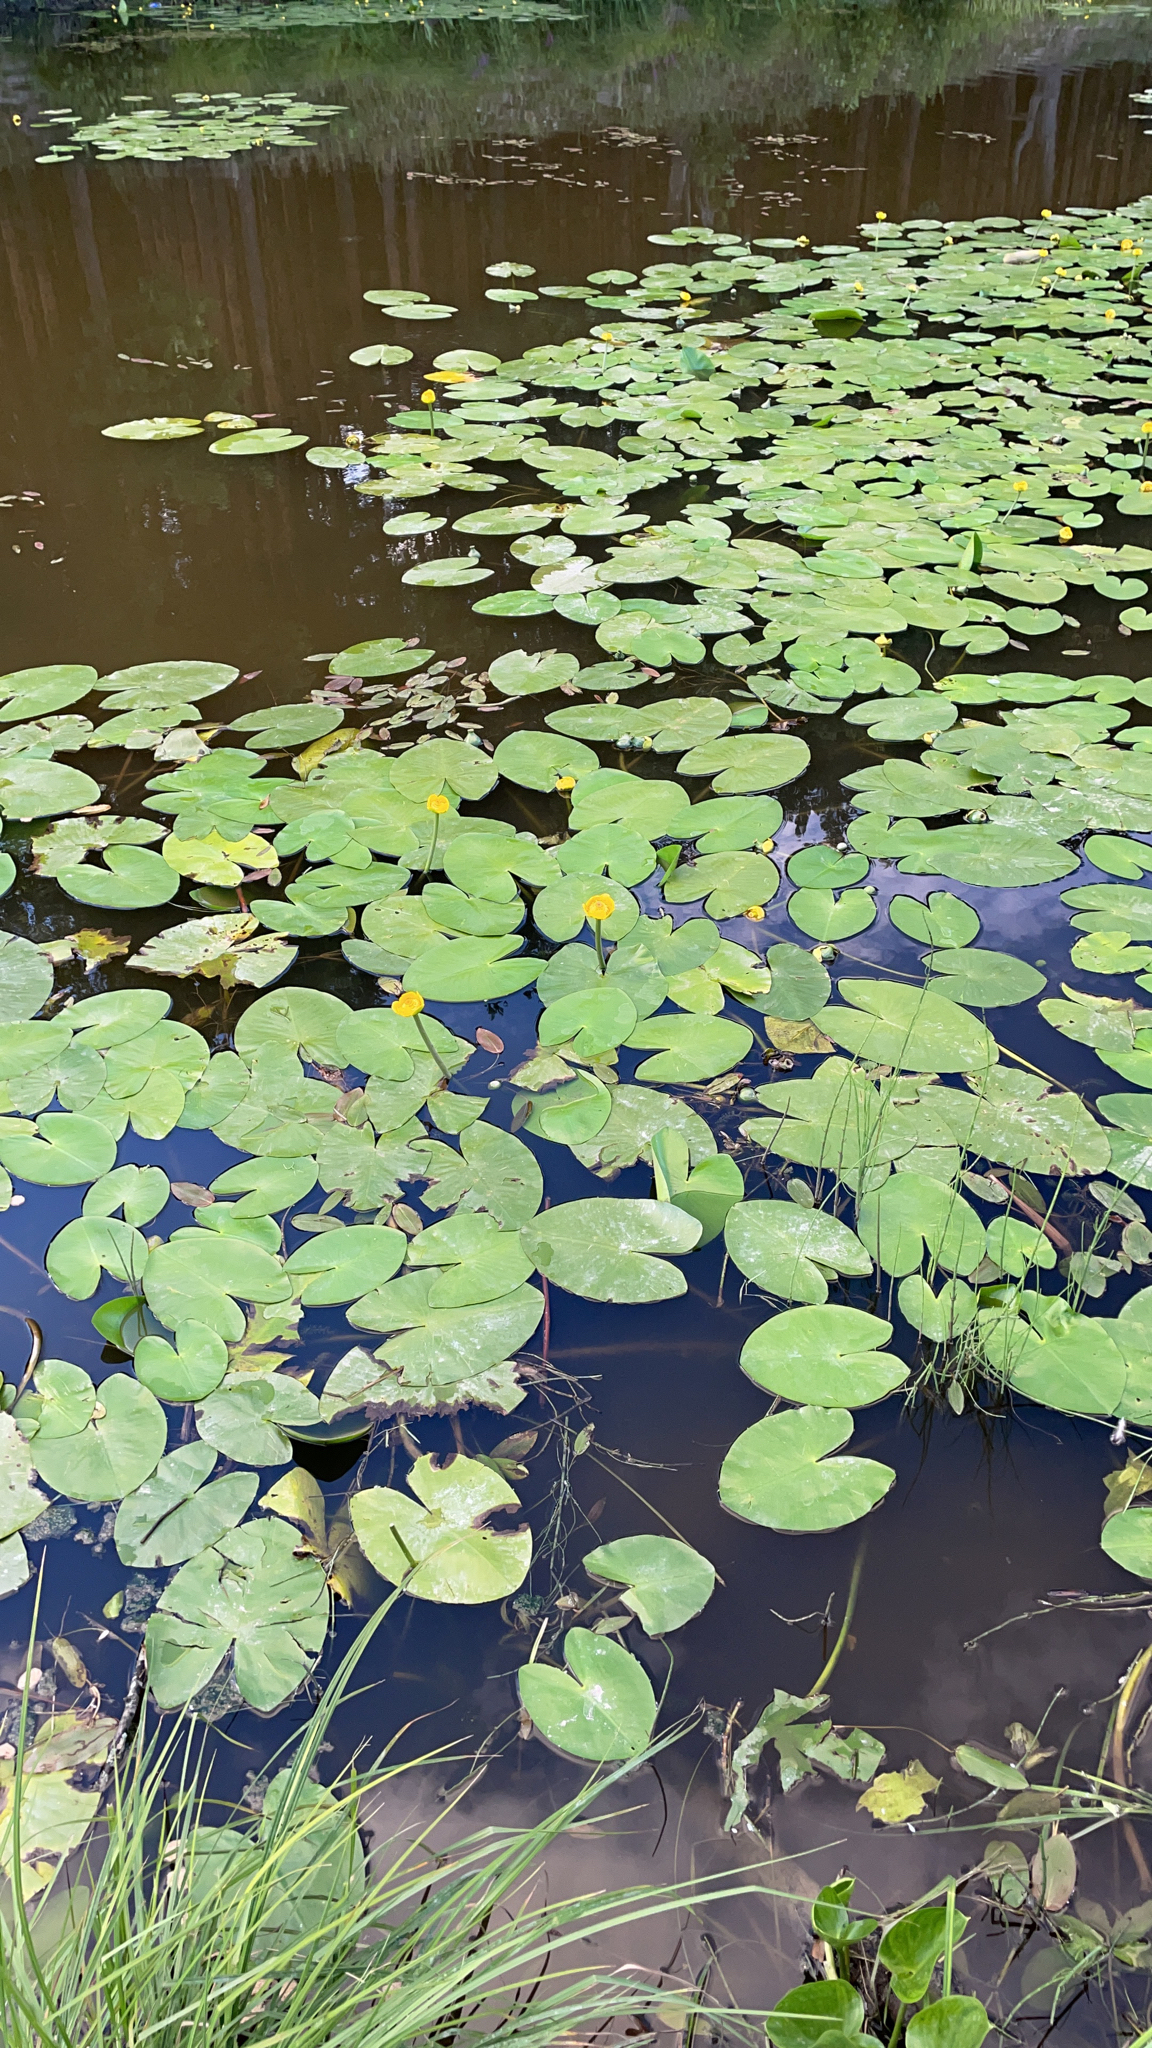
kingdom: Plantae
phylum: Tracheophyta
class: Magnoliopsida
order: Nymphaeales
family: Nymphaeaceae
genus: Nuphar
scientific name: Nuphar lutea
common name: Yellow water-lily
